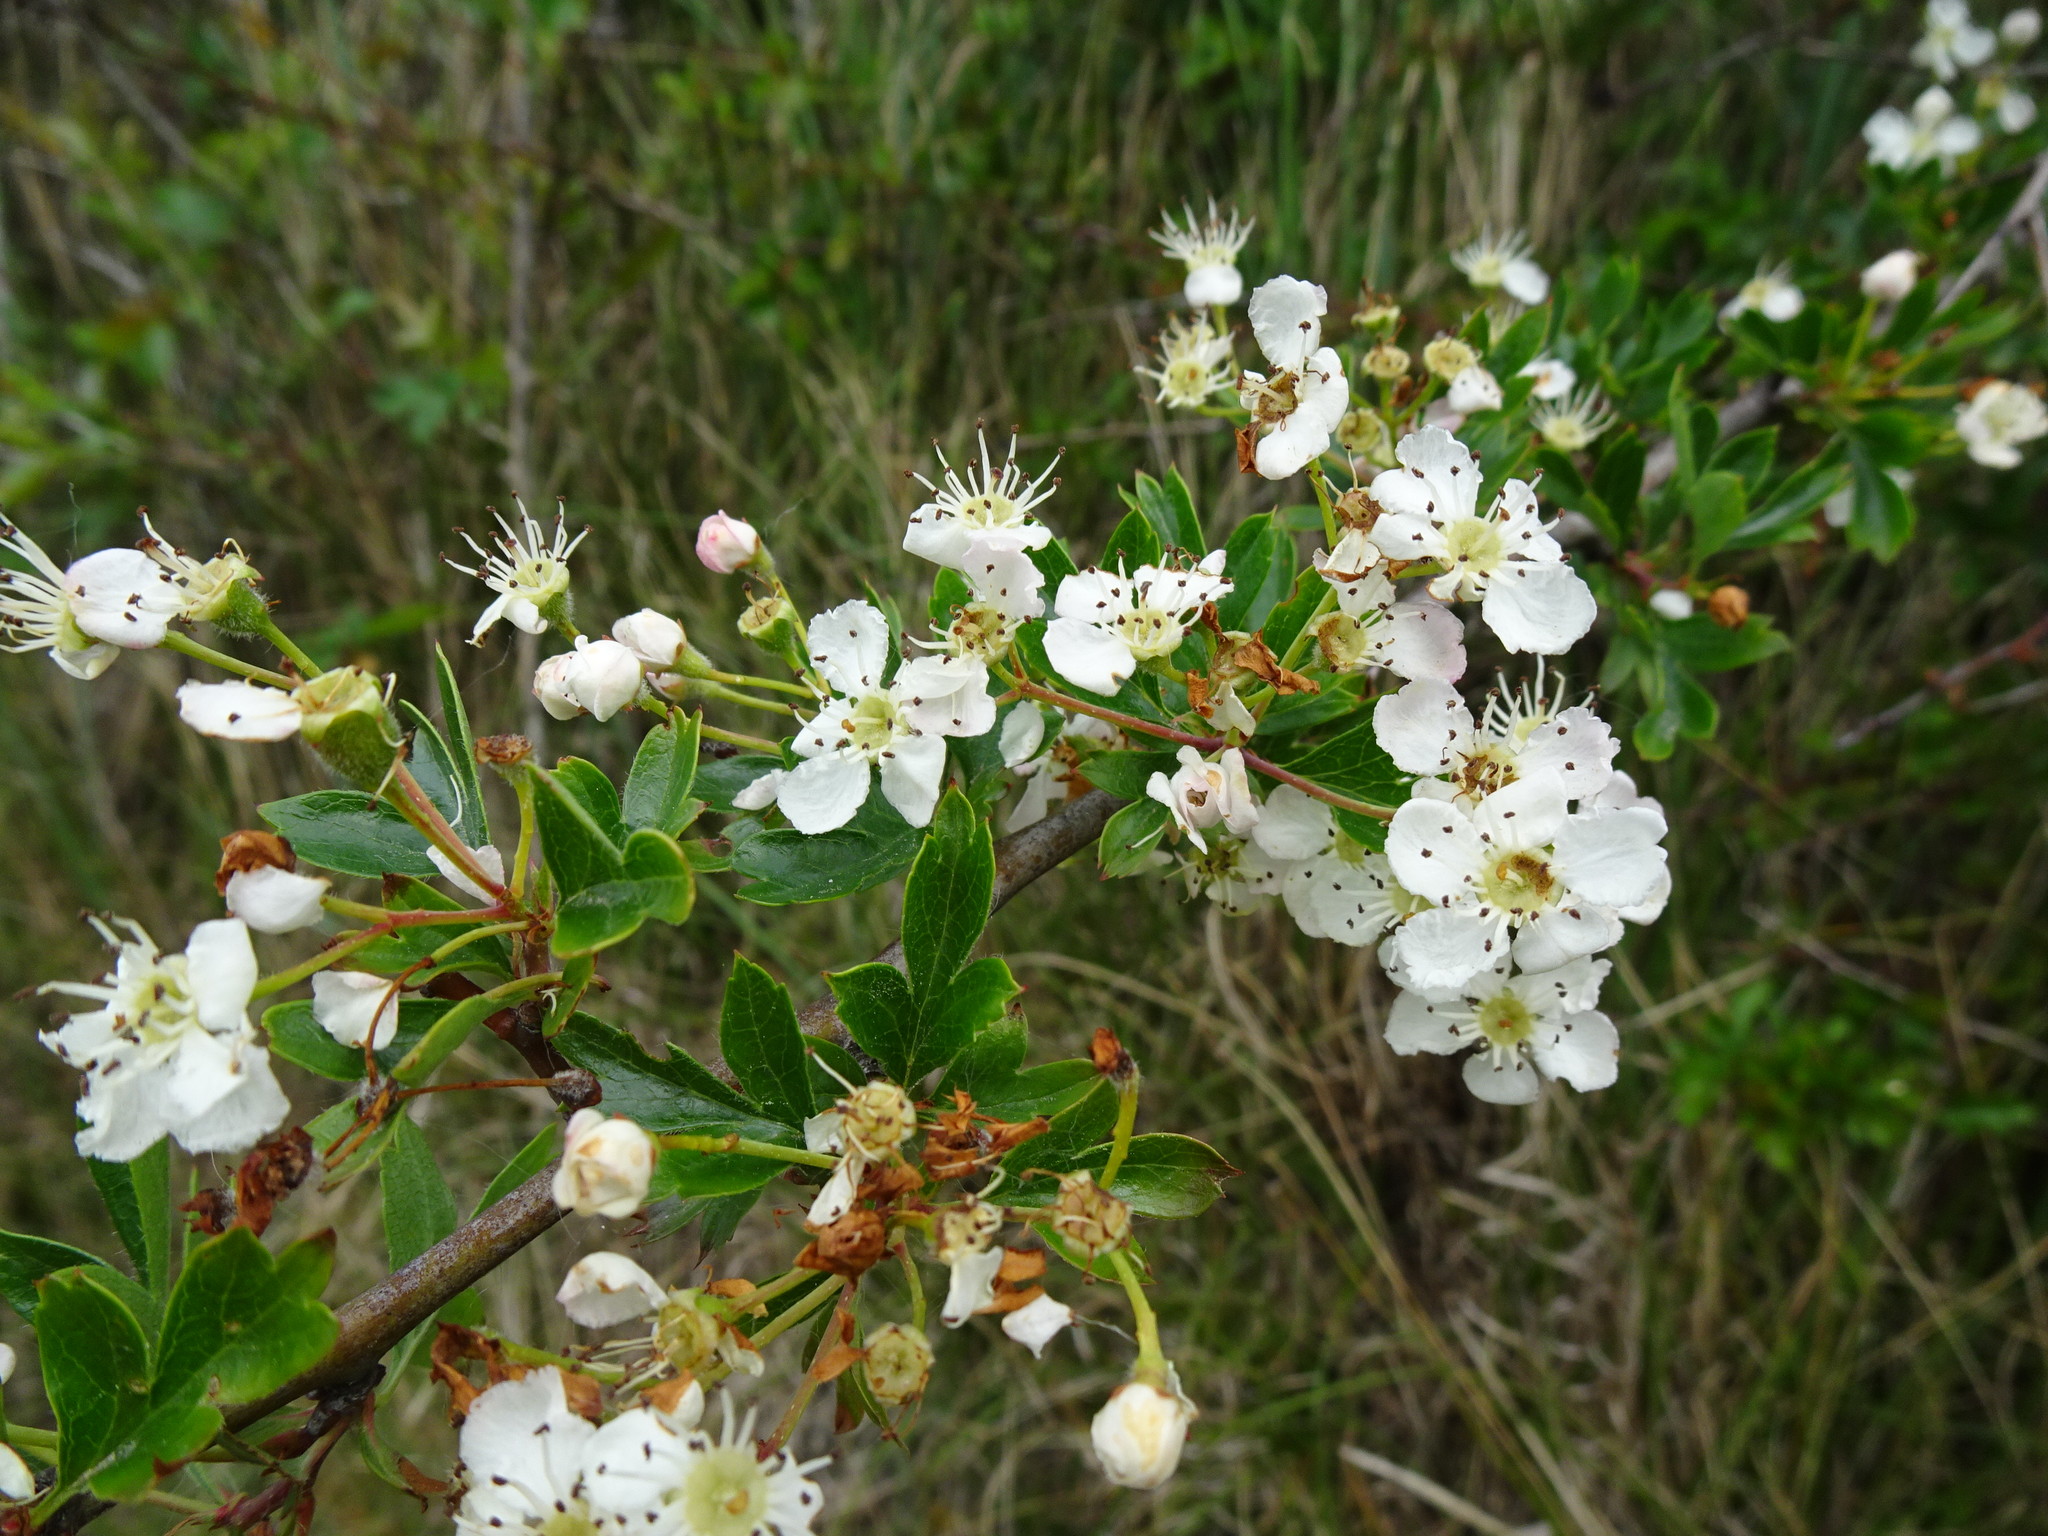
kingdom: Plantae
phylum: Tracheophyta
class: Magnoliopsida
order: Rosales
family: Rosaceae
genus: Crataegus
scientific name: Crataegus monogyna
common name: Hawthorn
